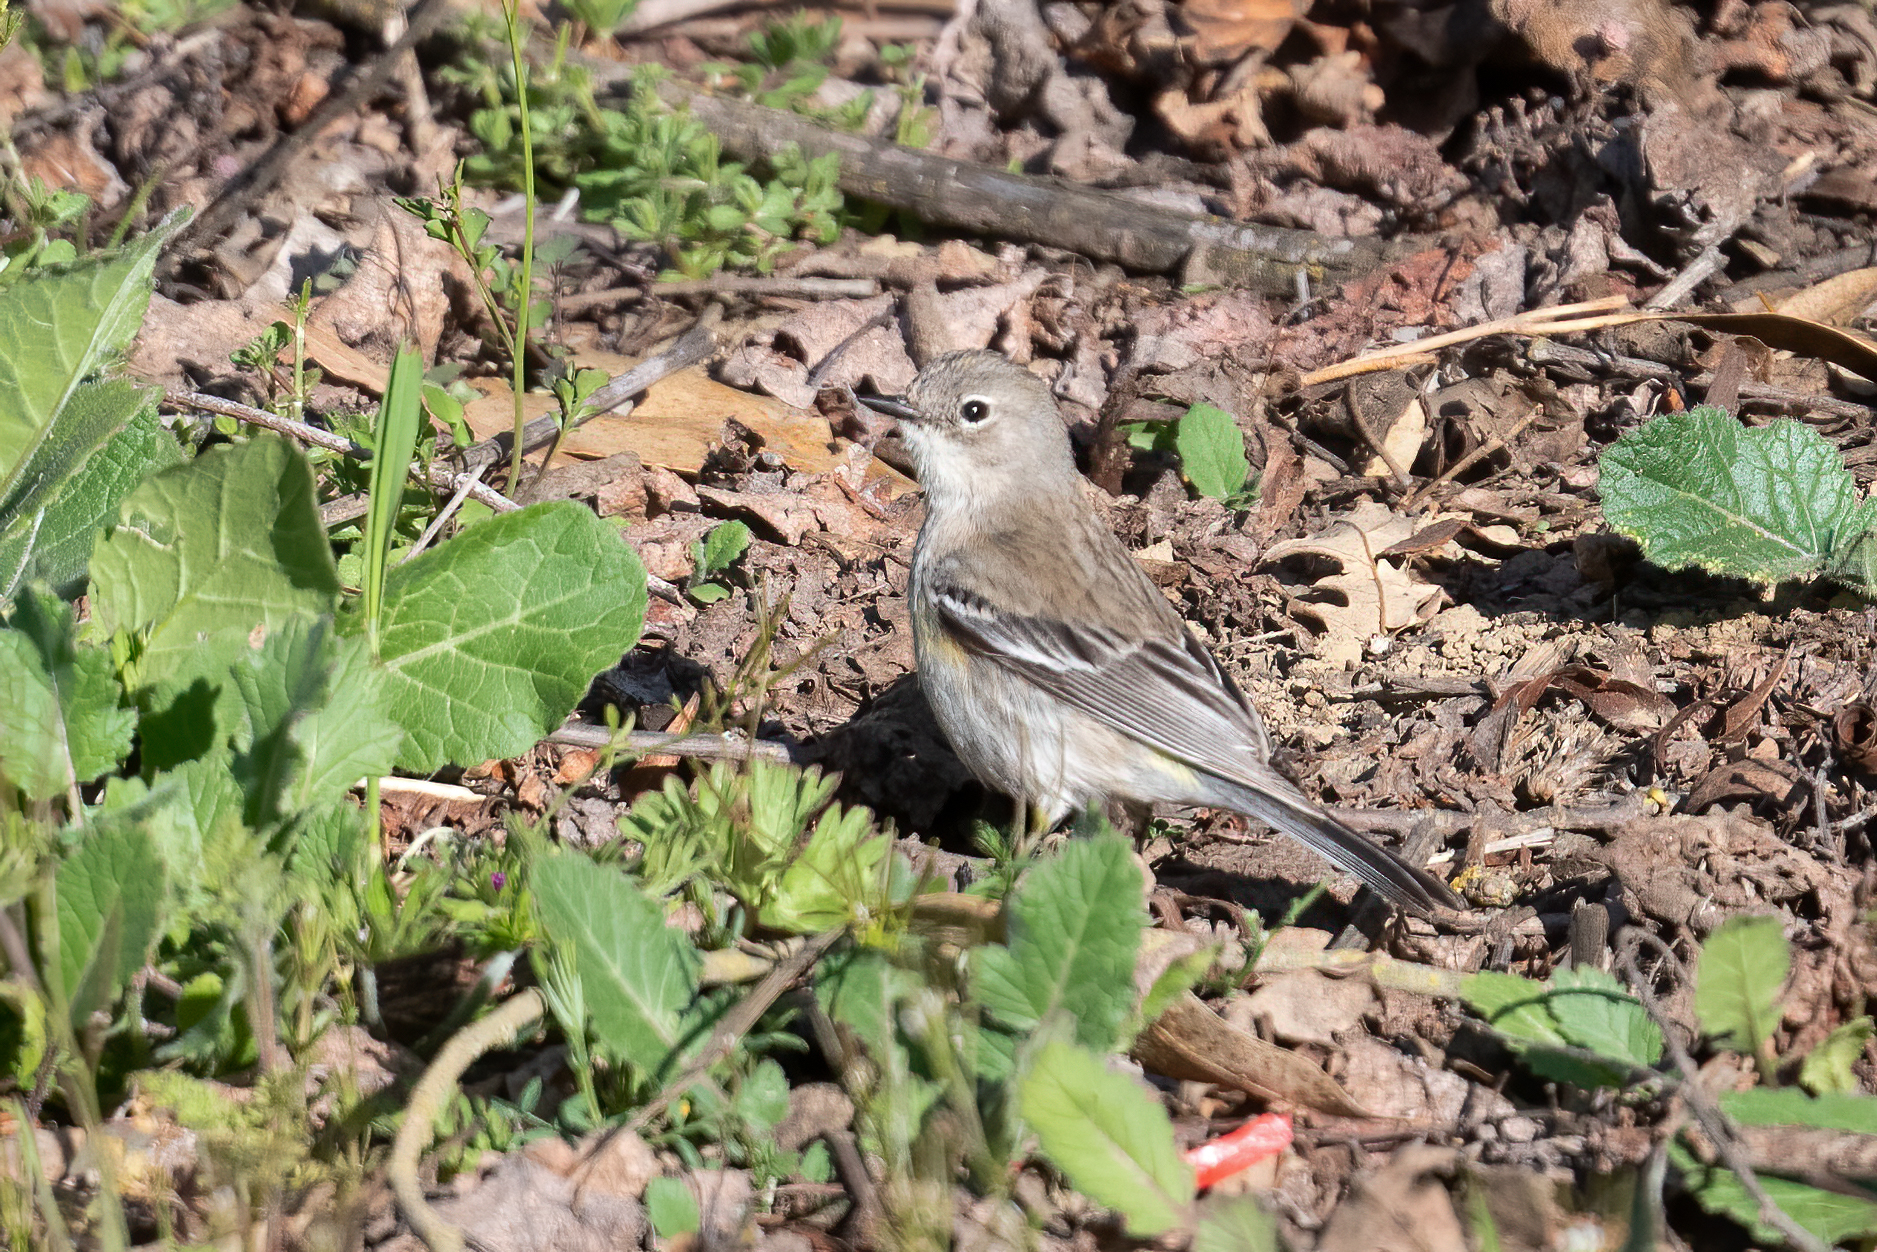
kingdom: Animalia
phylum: Chordata
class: Aves
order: Passeriformes
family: Parulidae
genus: Setophaga
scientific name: Setophaga coronata
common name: Myrtle warbler
